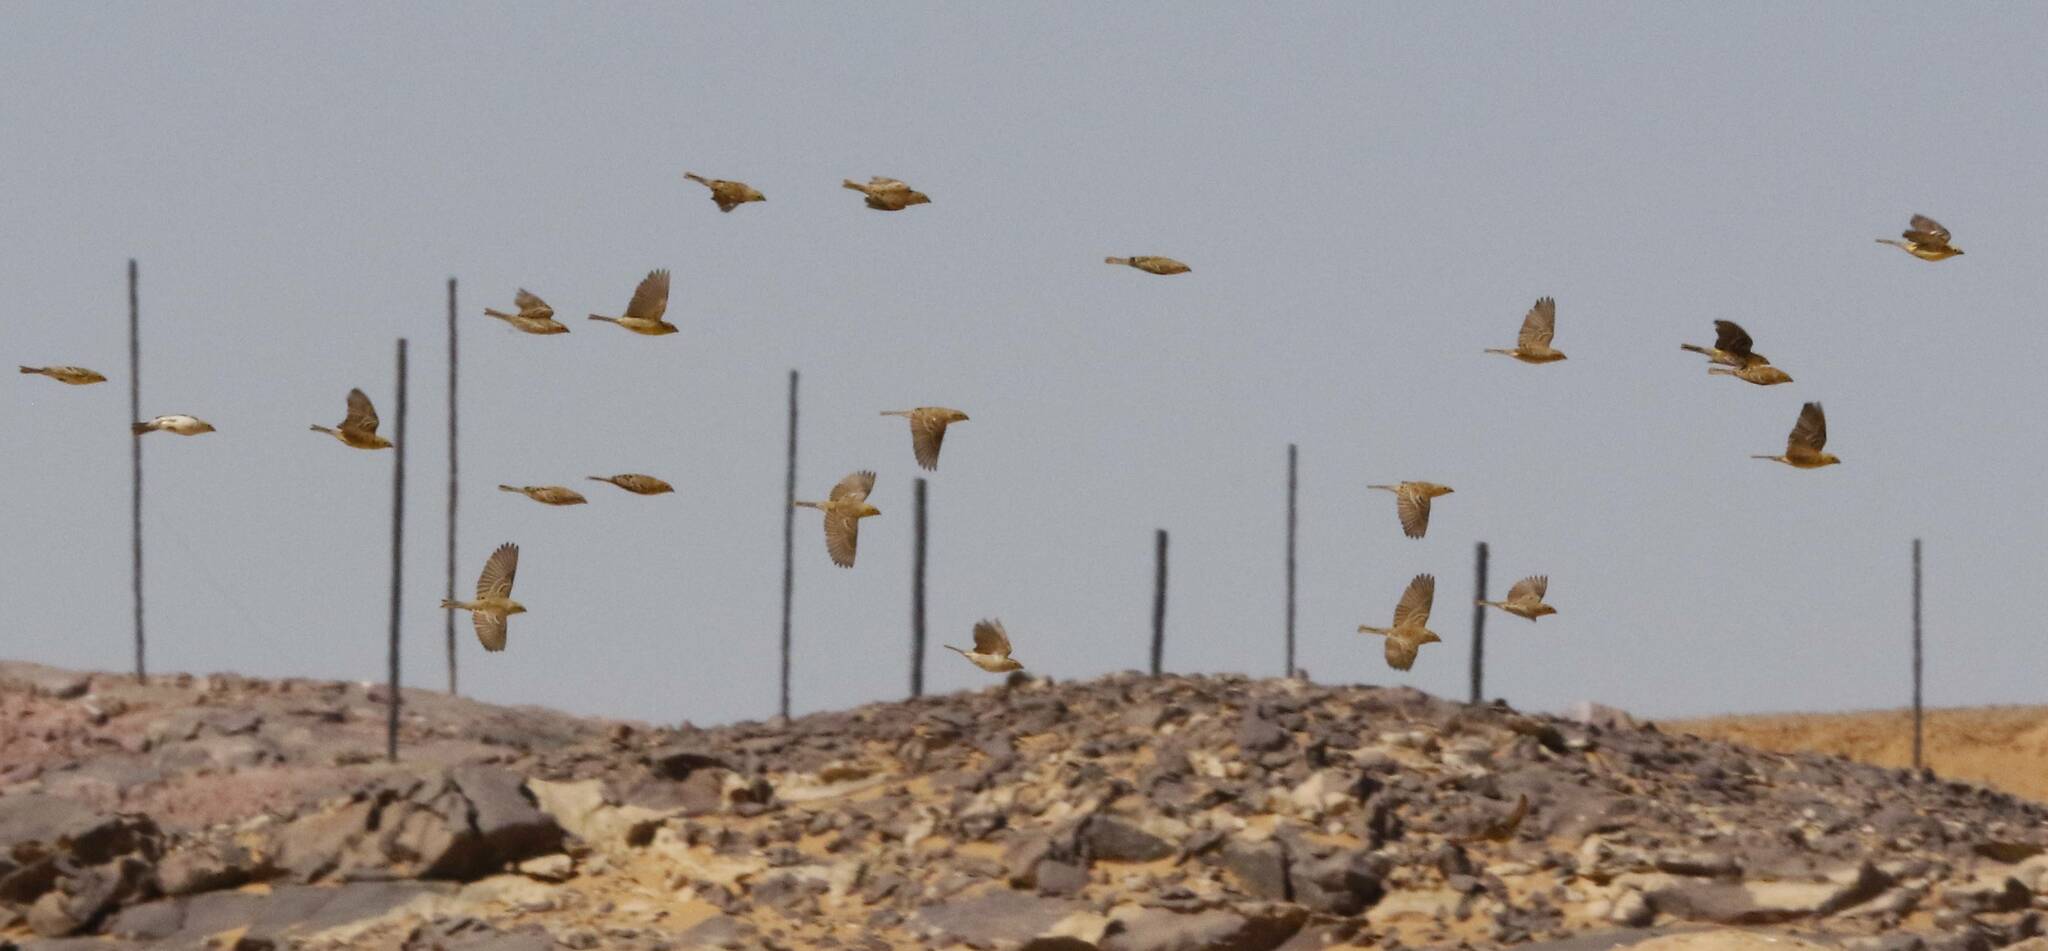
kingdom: Animalia
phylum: Chordata
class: Aves
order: Passeriformes
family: Passeridae
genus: Passer
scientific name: Passer luteus
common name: Sudan golden sparrow
